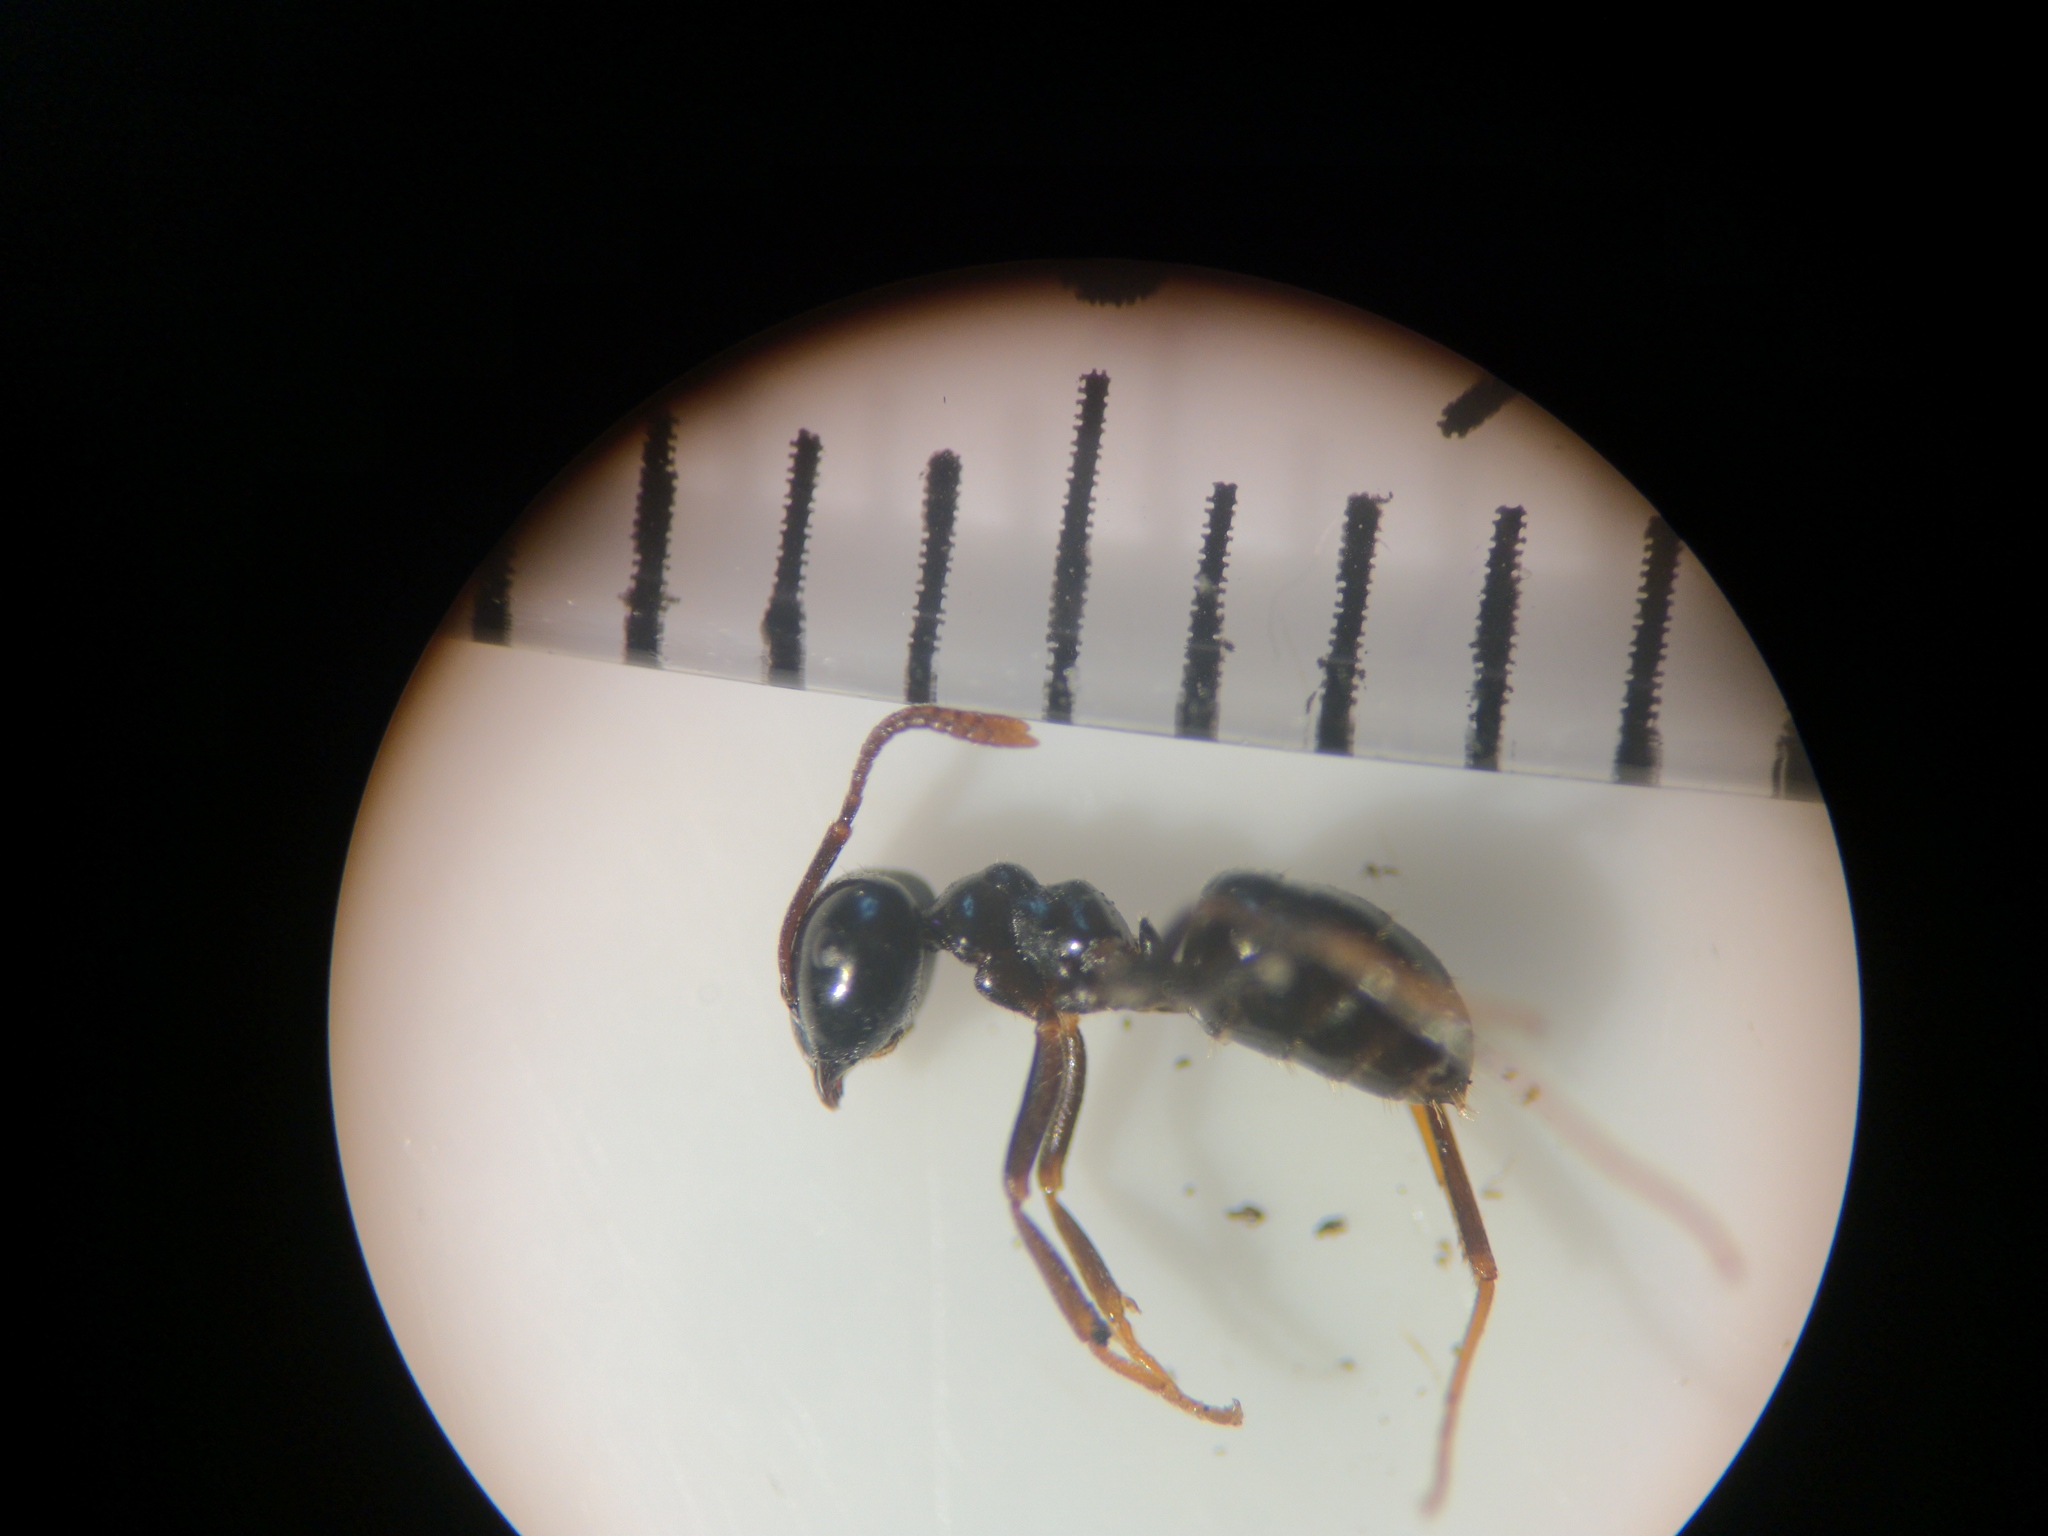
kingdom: Animalia
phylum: Arthropoda
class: Insecta
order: Hymenoptera
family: Formicidae
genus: Lasius
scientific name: Lasius fuliginosus
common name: Jet ant
